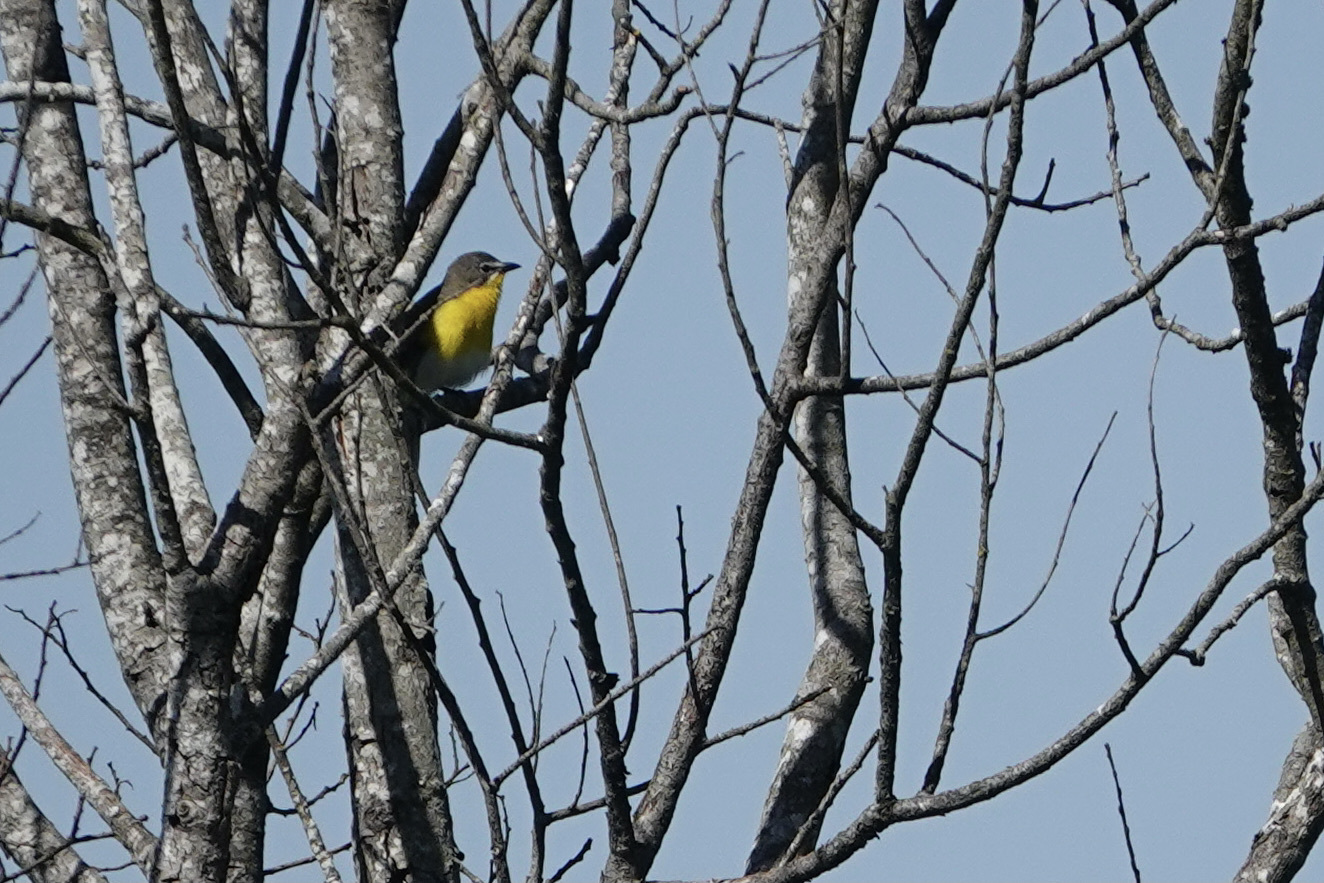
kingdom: Animalia
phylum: Chordata
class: Aves
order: Passeriformes
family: Parulidae
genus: Icteria
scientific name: Icteria virens
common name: Yellow-breasted chat
